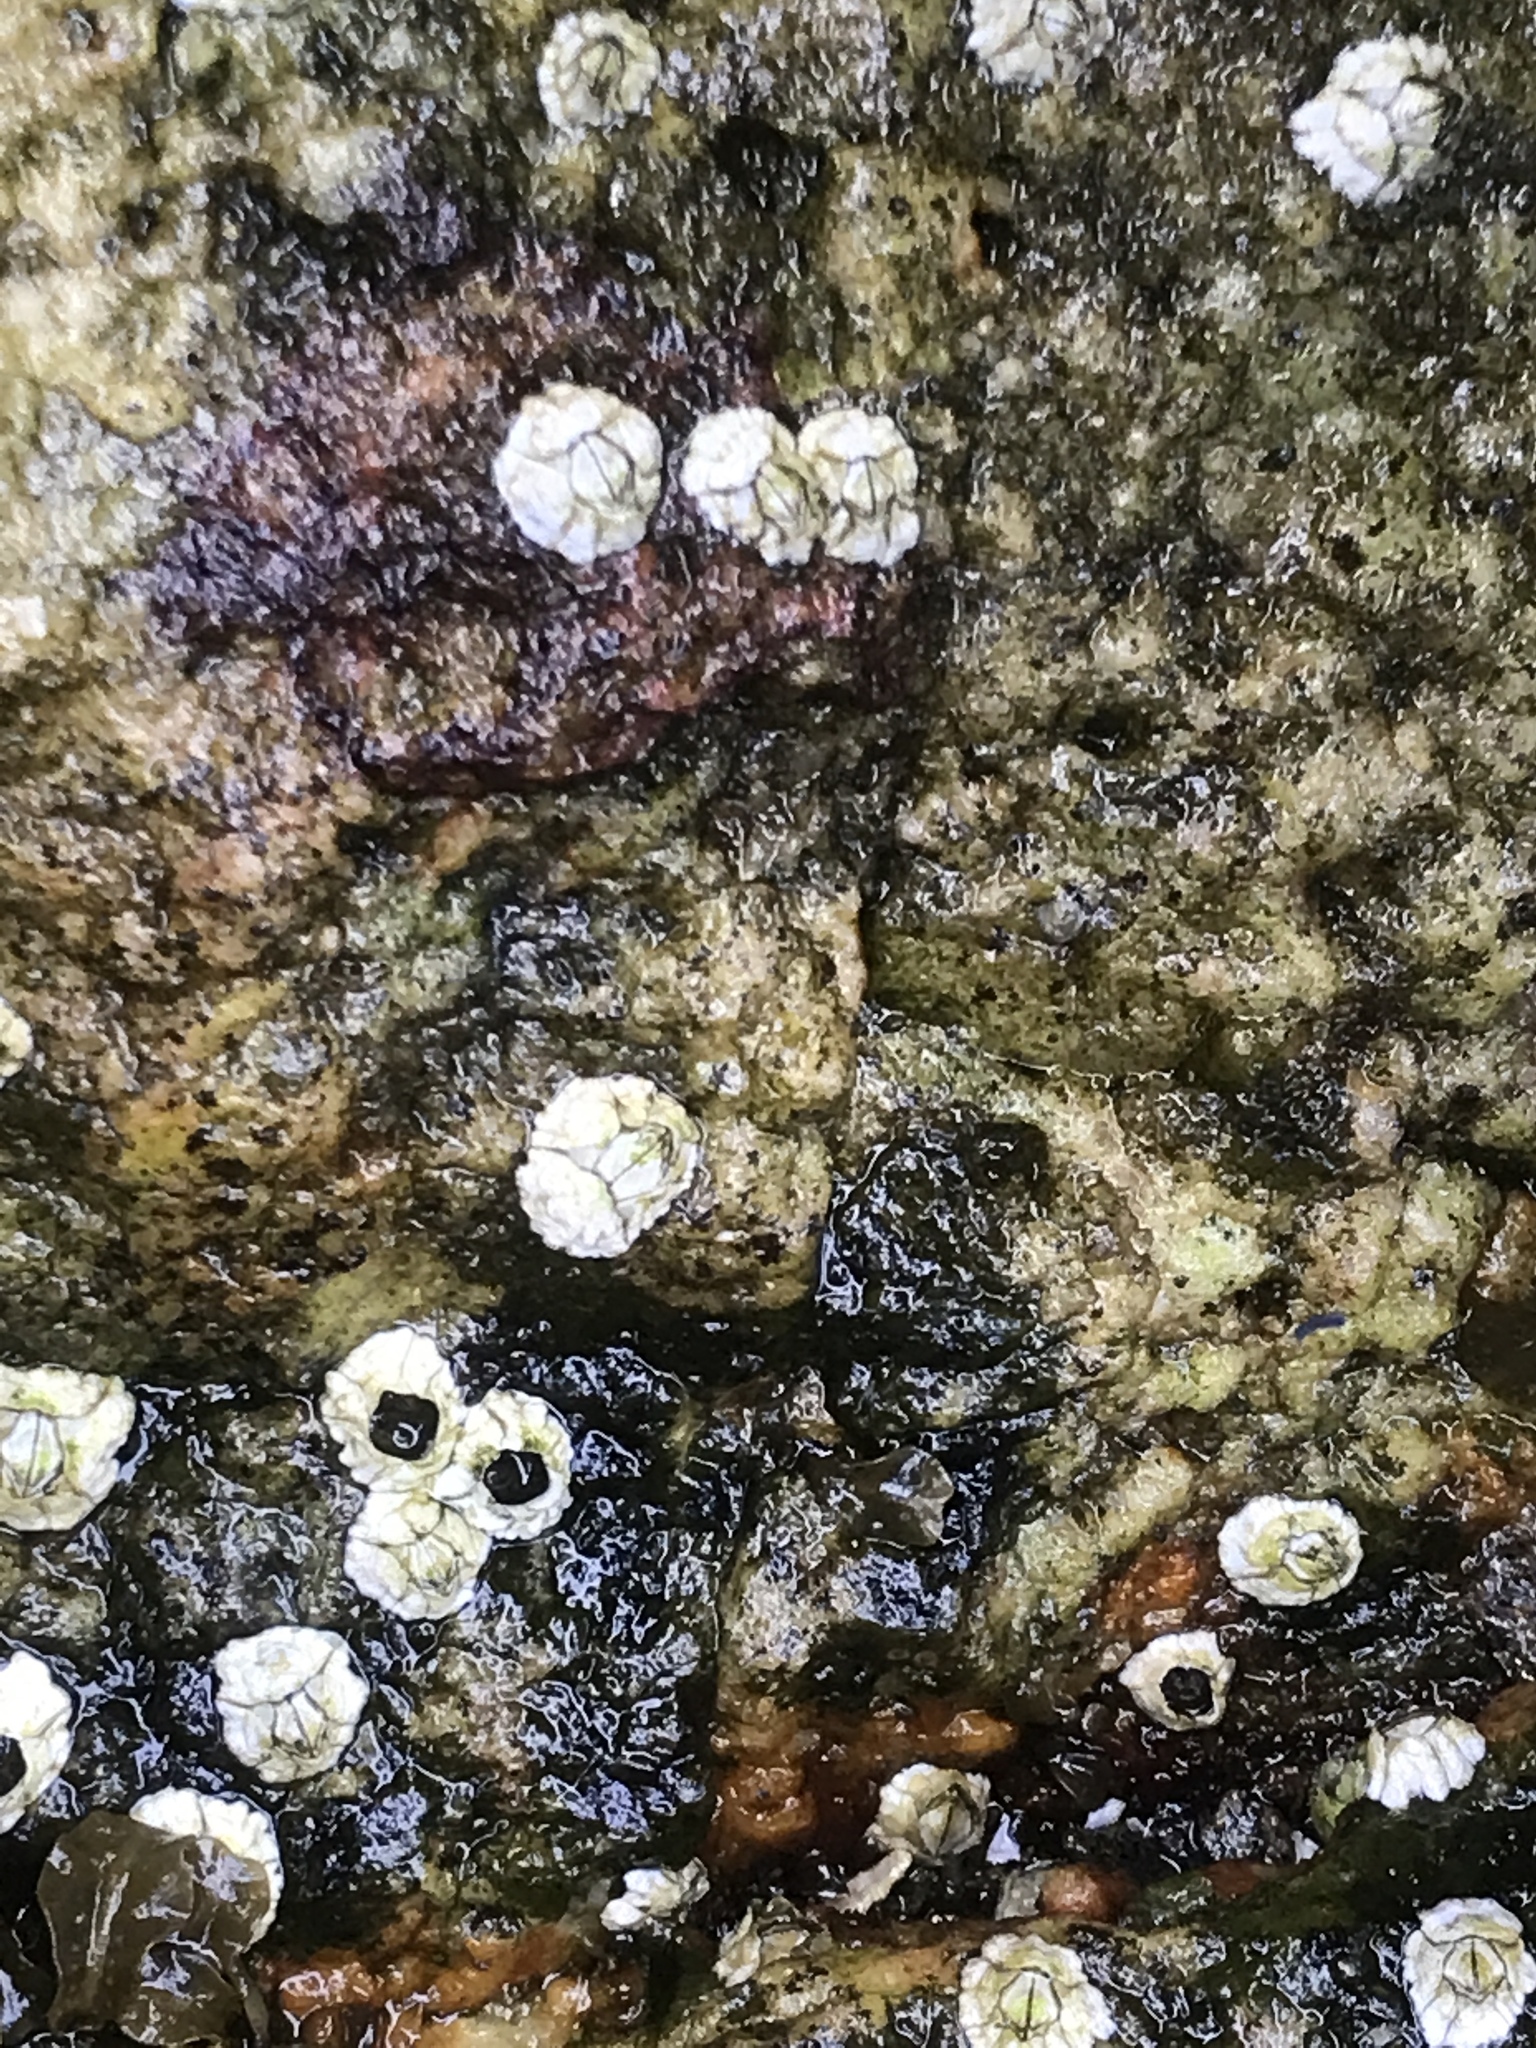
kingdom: Animalia
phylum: Arthropoda
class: Maxillopoda
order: Sessilia
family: Archaeobalanidae
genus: Semibalanus
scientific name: Semibalanus balanoides
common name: Acorn barnacle
